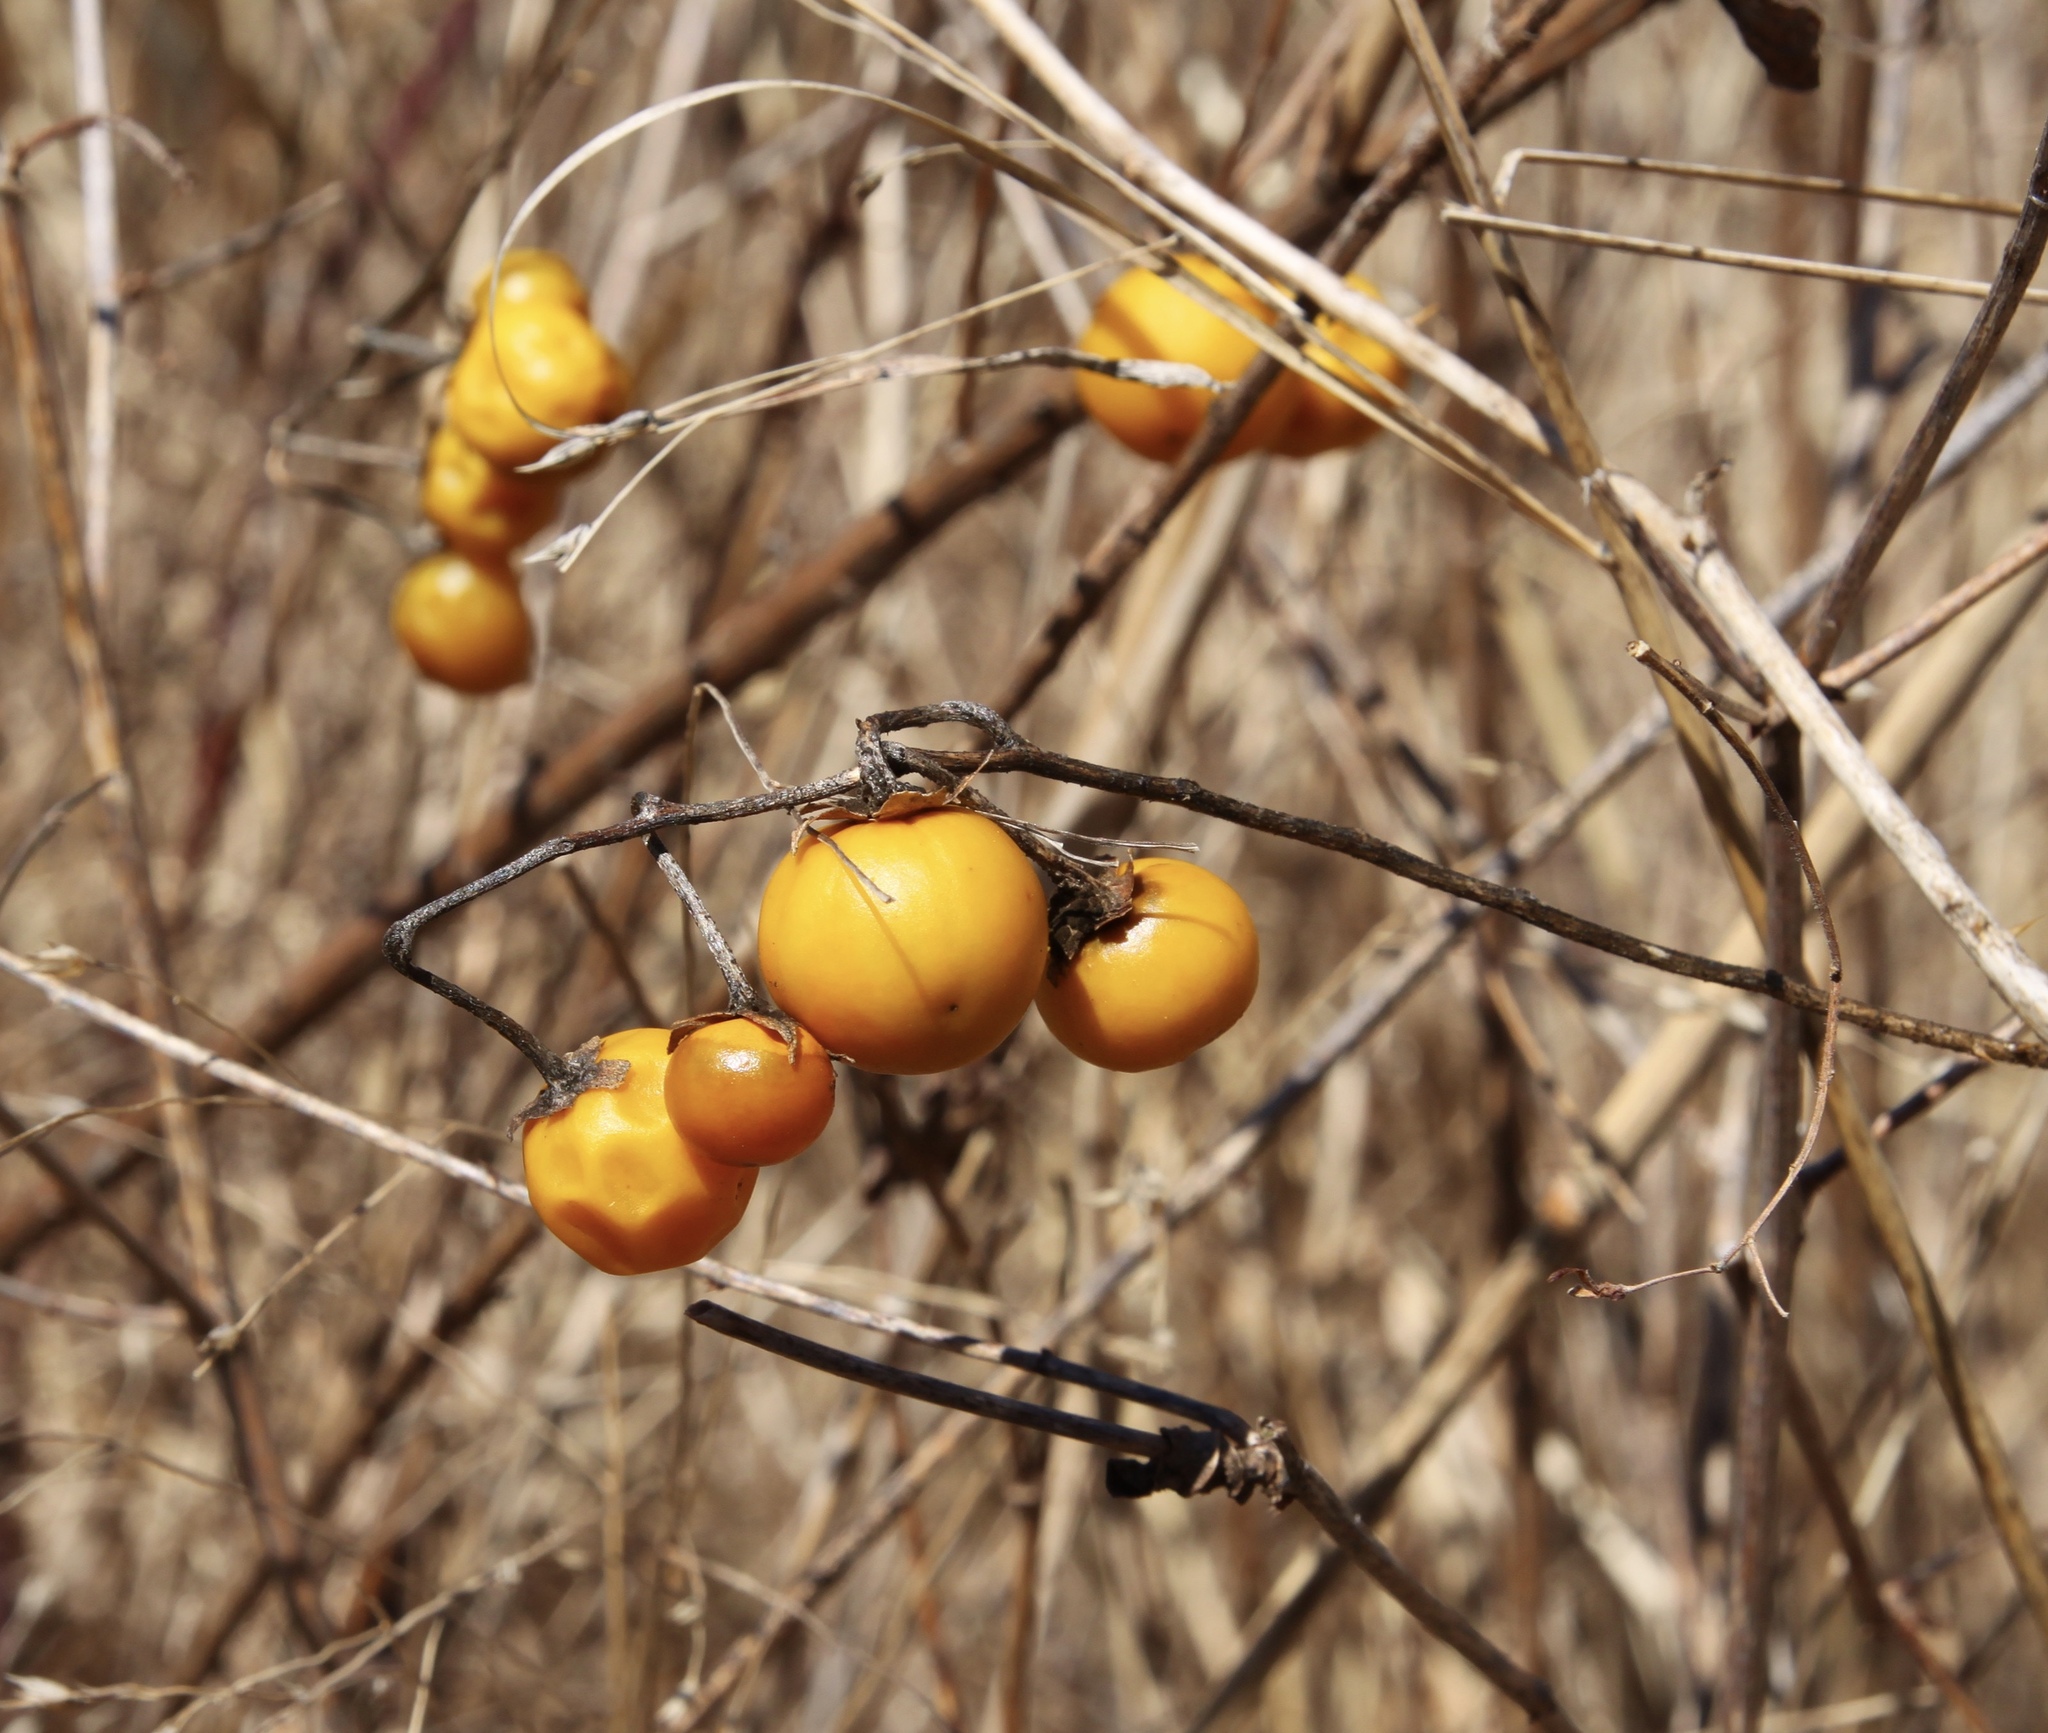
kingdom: Plantae
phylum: Tracheophyta
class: Magnoliopsida
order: Solanales
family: Solanaceae
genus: Solanum
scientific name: Solanum carolinense
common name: Horse-nettle
